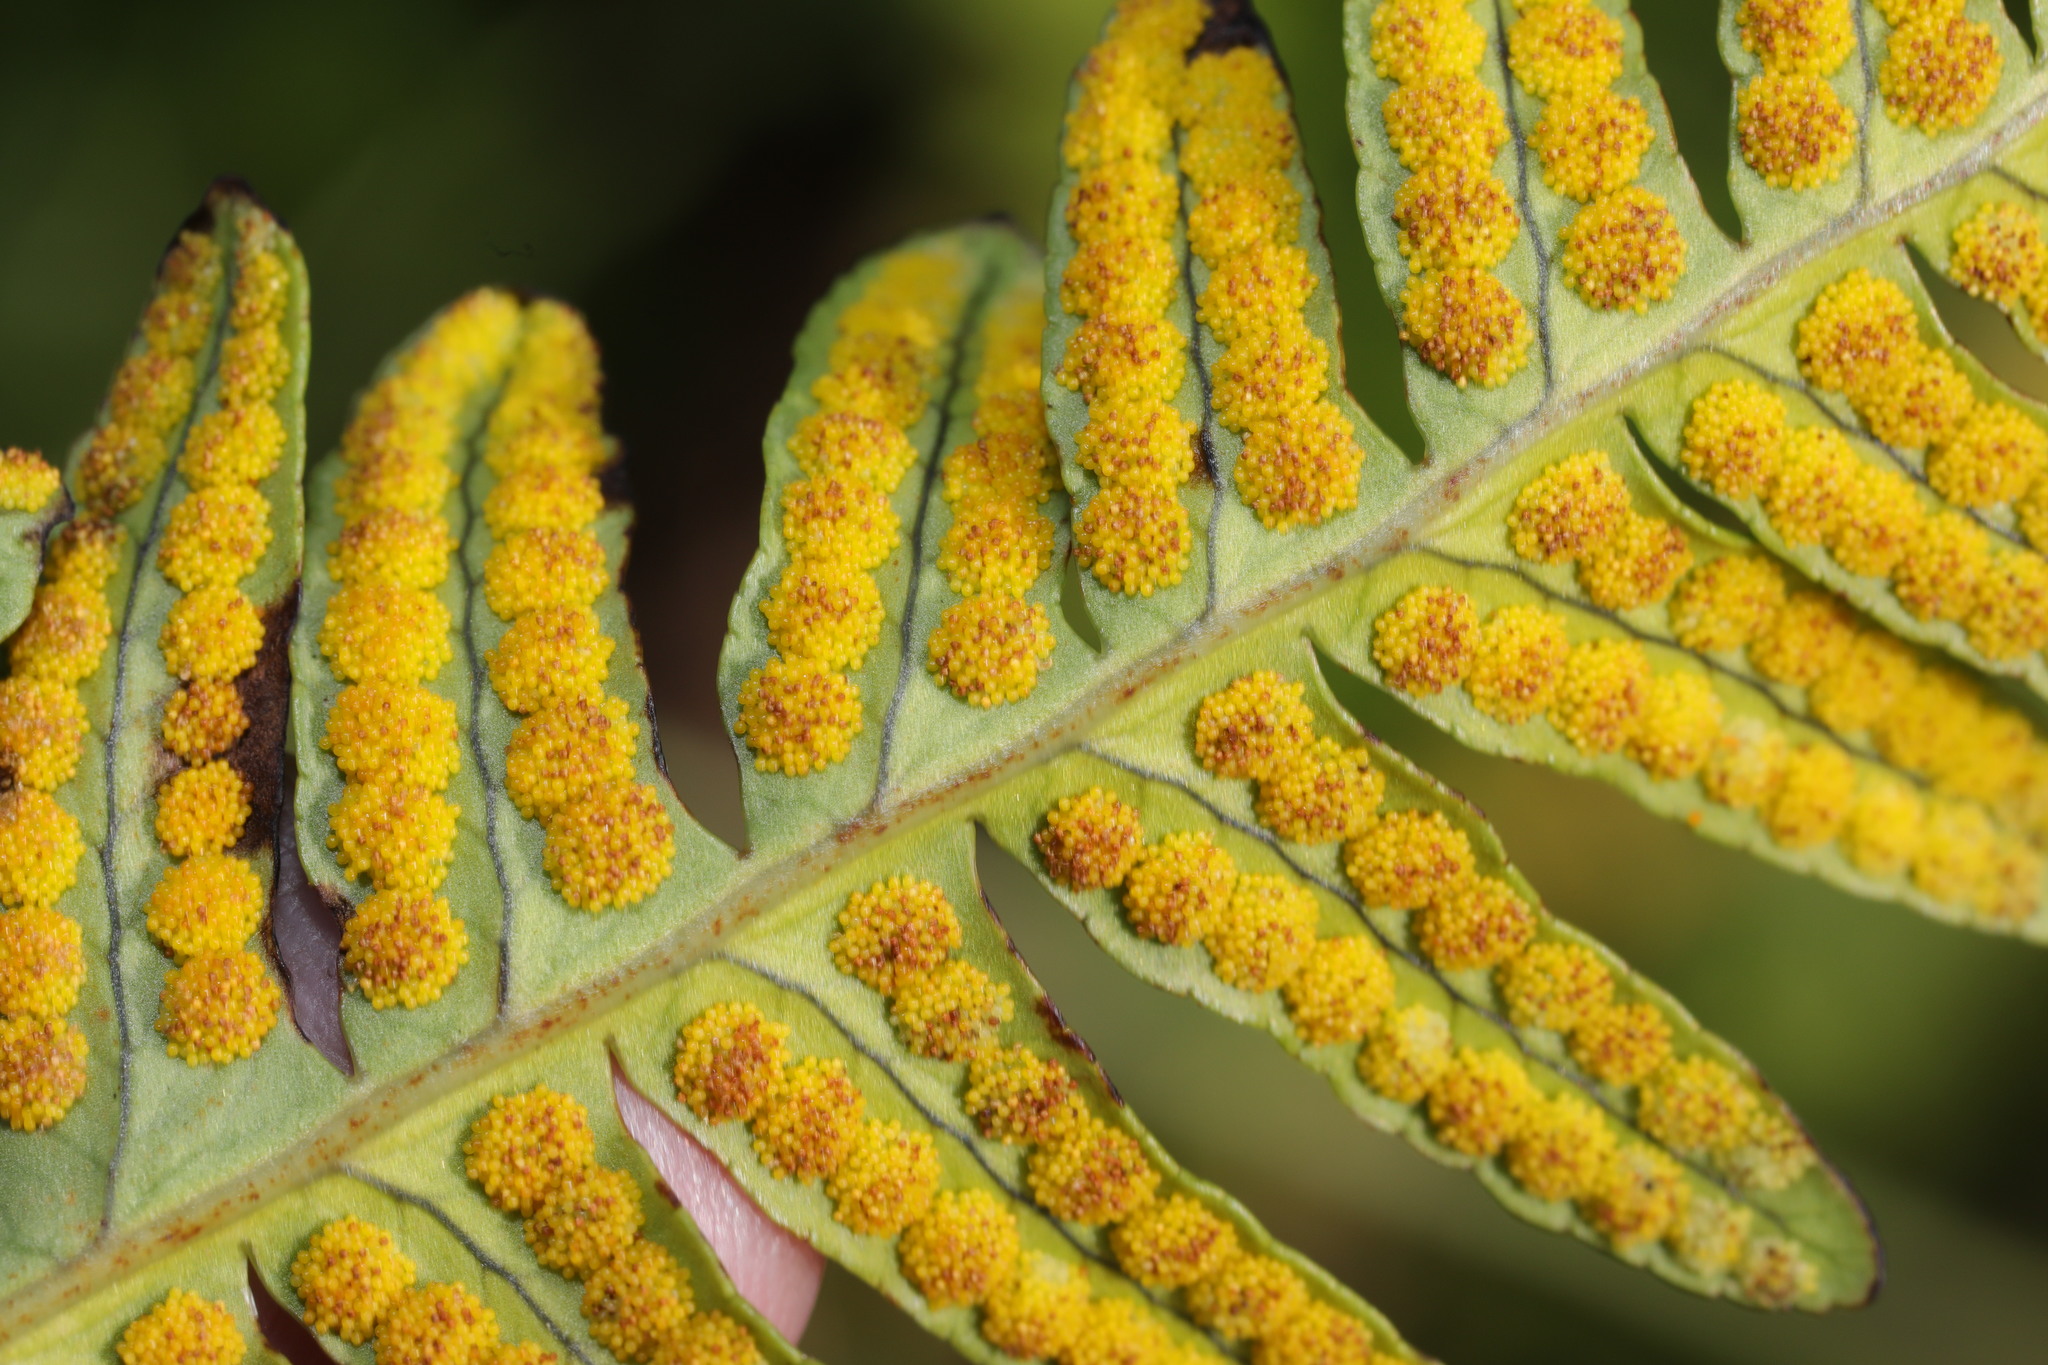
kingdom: Plantae
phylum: Tracheophyta
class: Polypodiopsida
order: Polypodiales
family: Polypodiaceae
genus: Polypodium
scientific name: Polypodium vulgare
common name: Common polypody
